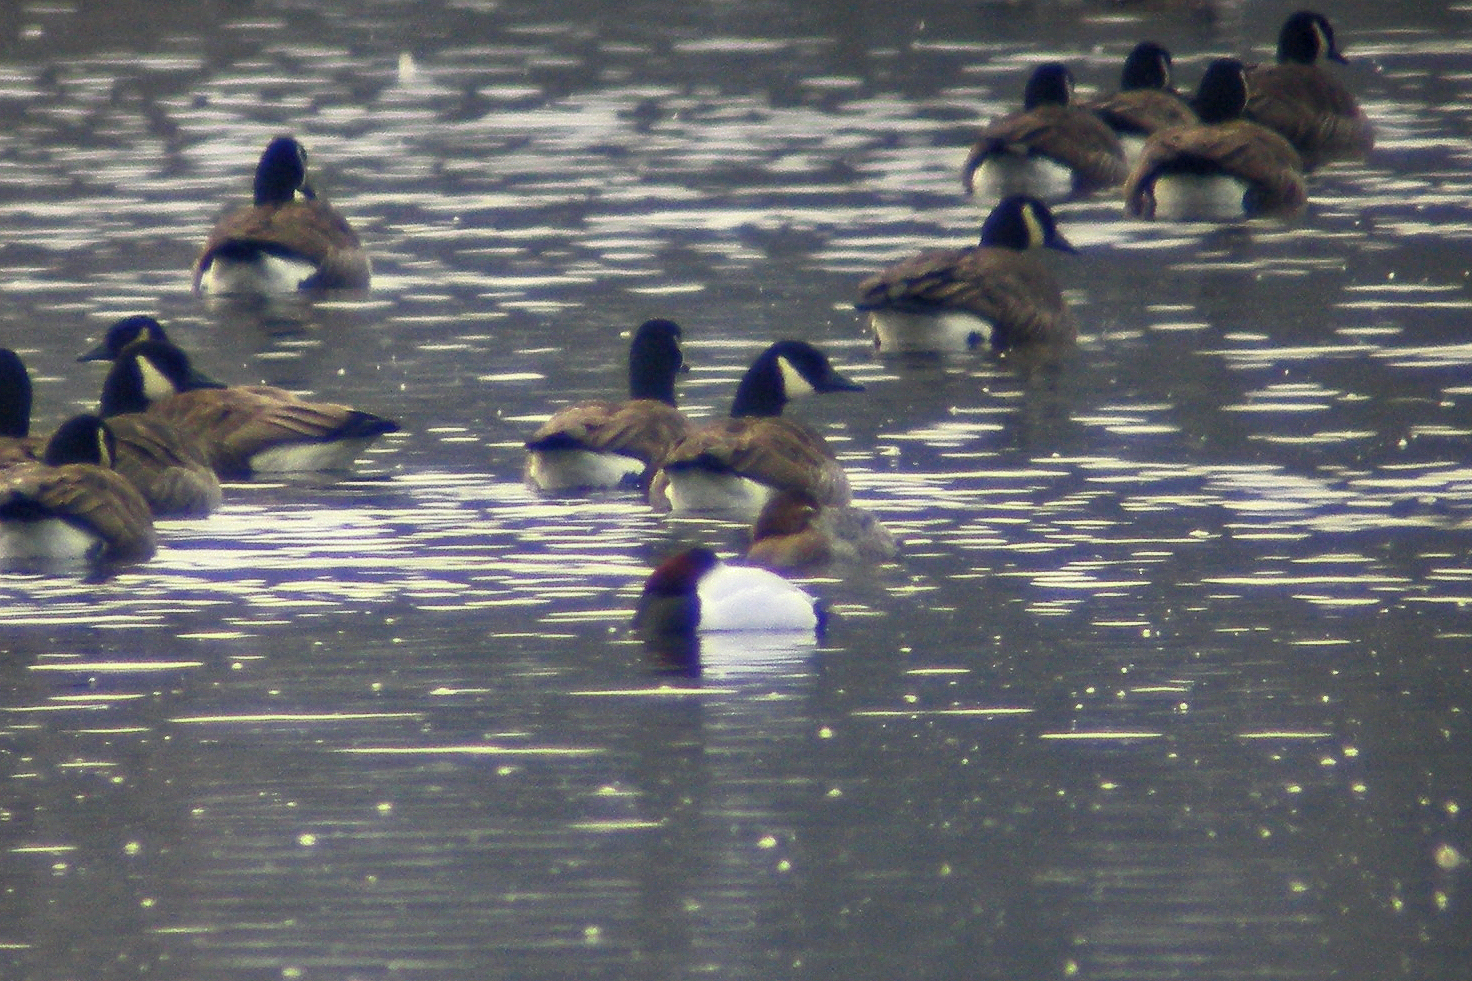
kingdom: Animalia
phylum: Chordata
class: Aves
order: Anseriformes
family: Anatidae
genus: Aythya
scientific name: Aythya valisineria
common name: Canvasback
